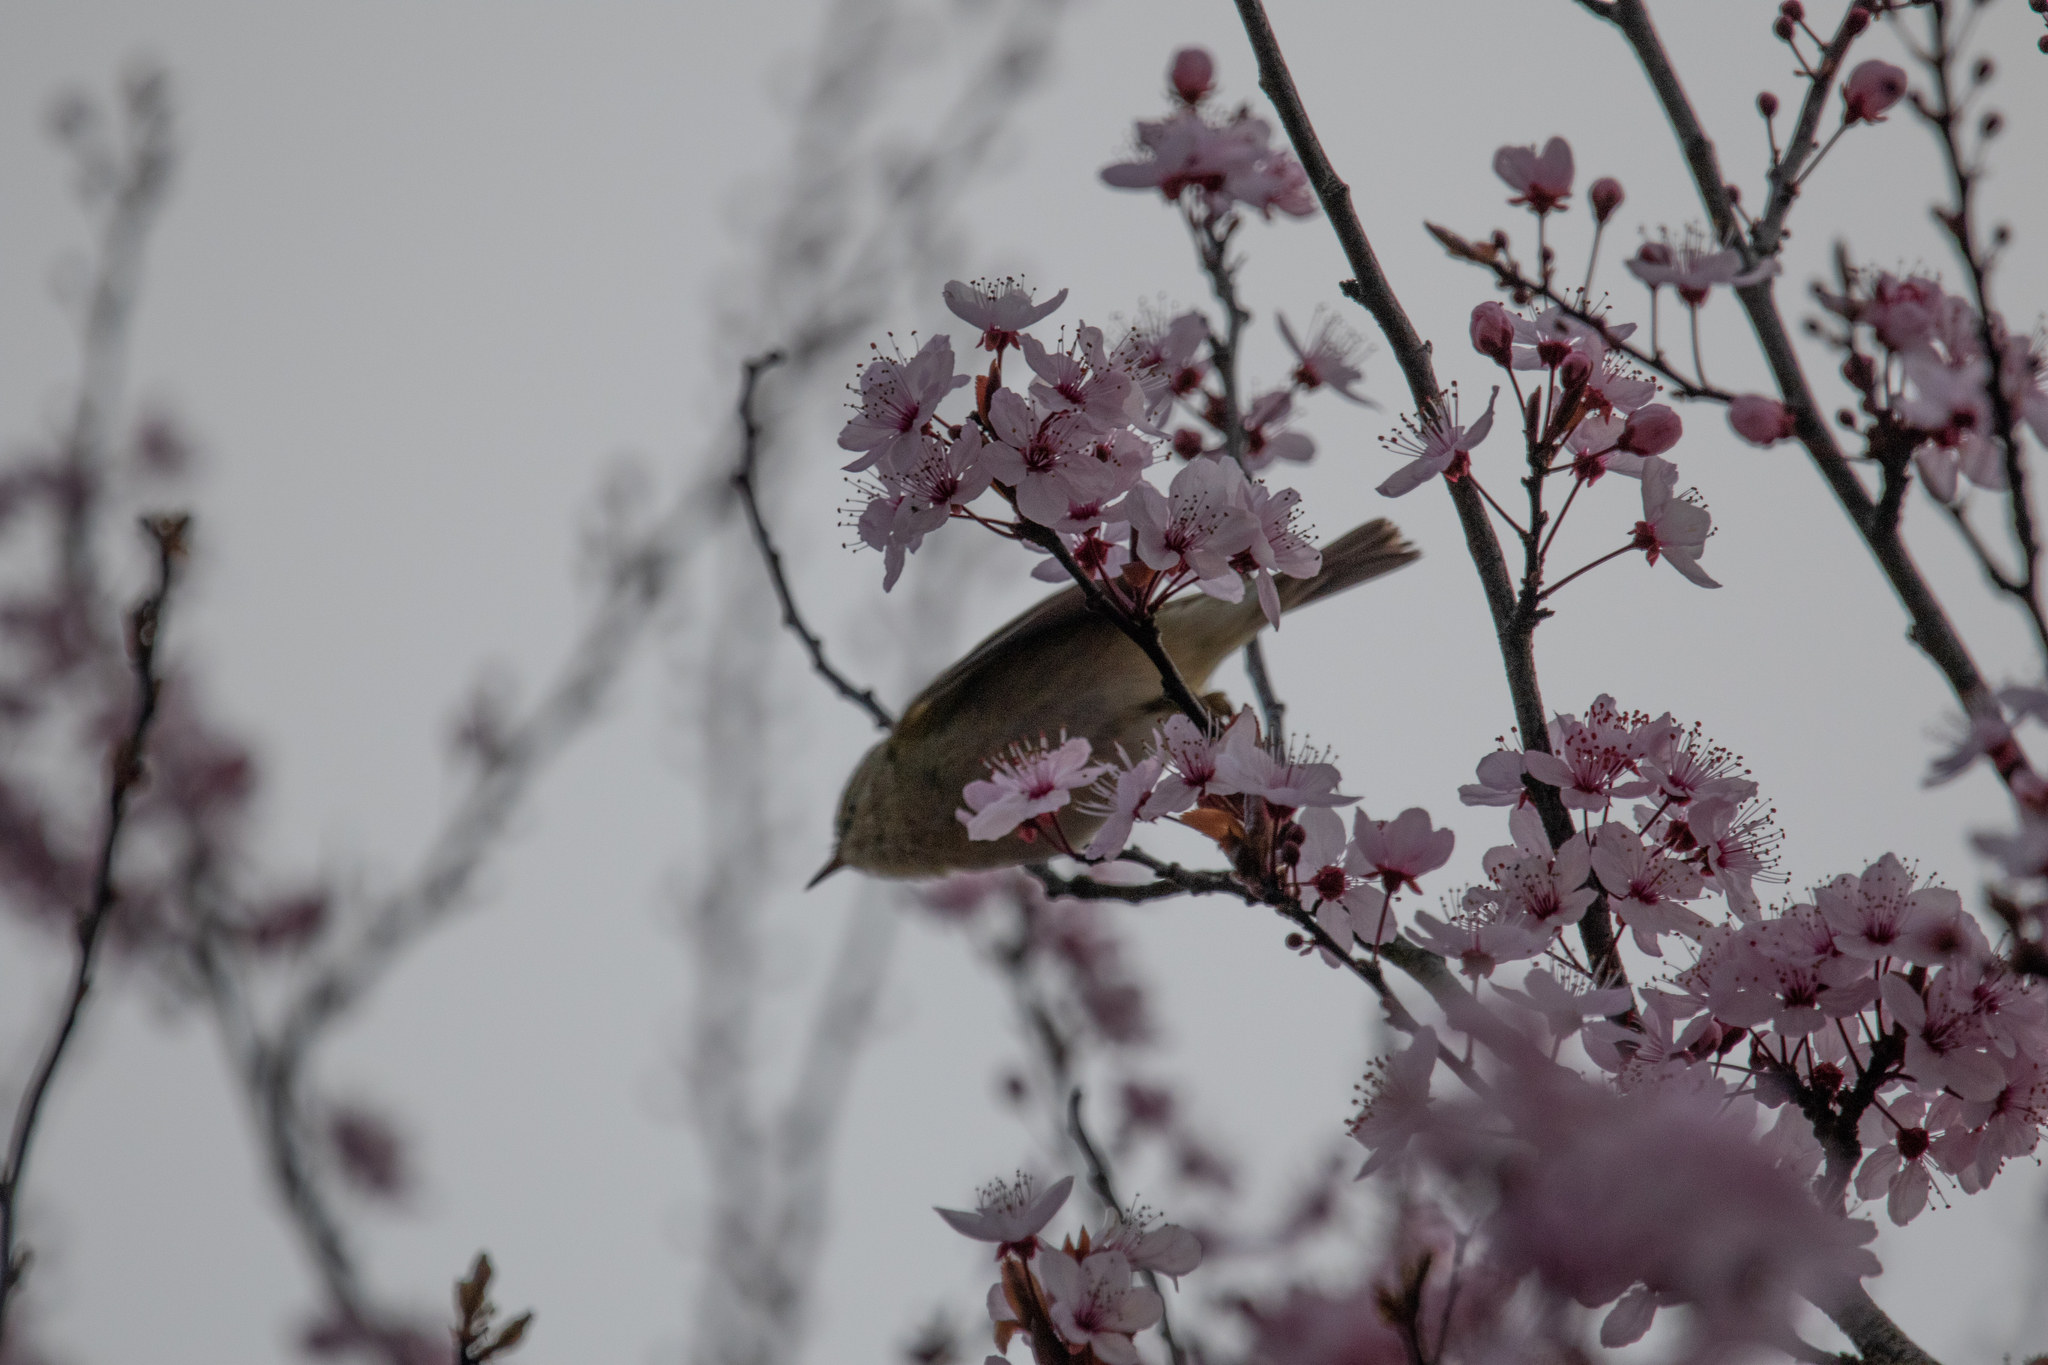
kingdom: Animalia
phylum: Chordata
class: Aves
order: Passeriformes
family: Phylloscopidae
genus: Phylloscopus
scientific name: Phylloscopus collybita
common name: Common chiffchaff
